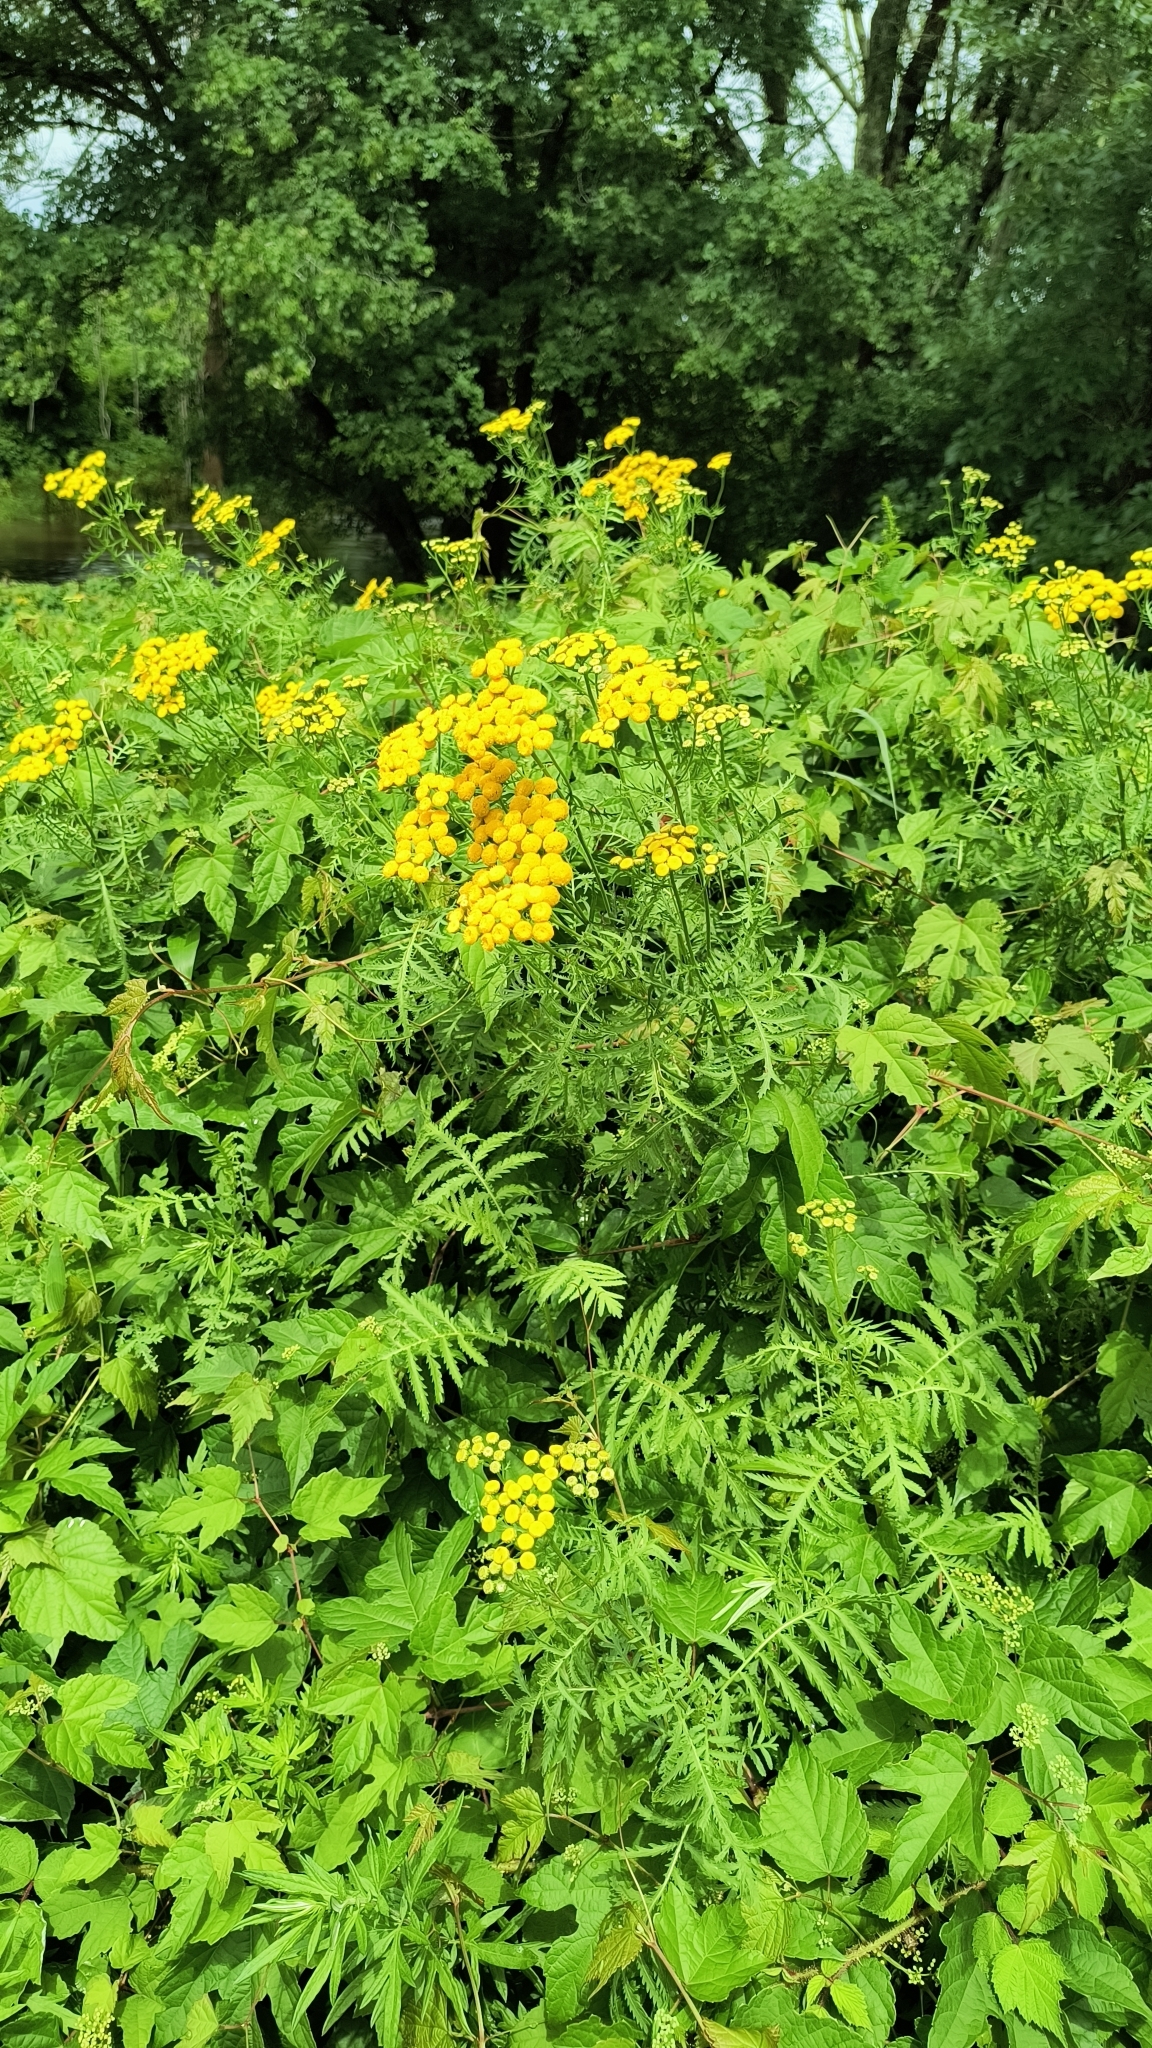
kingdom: Plantae
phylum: Tracheophyta
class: Magnoliopsida
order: Asterales
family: Asteraceae
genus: Tanacetum
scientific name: Tanacetum vulgare
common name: Common tansy
